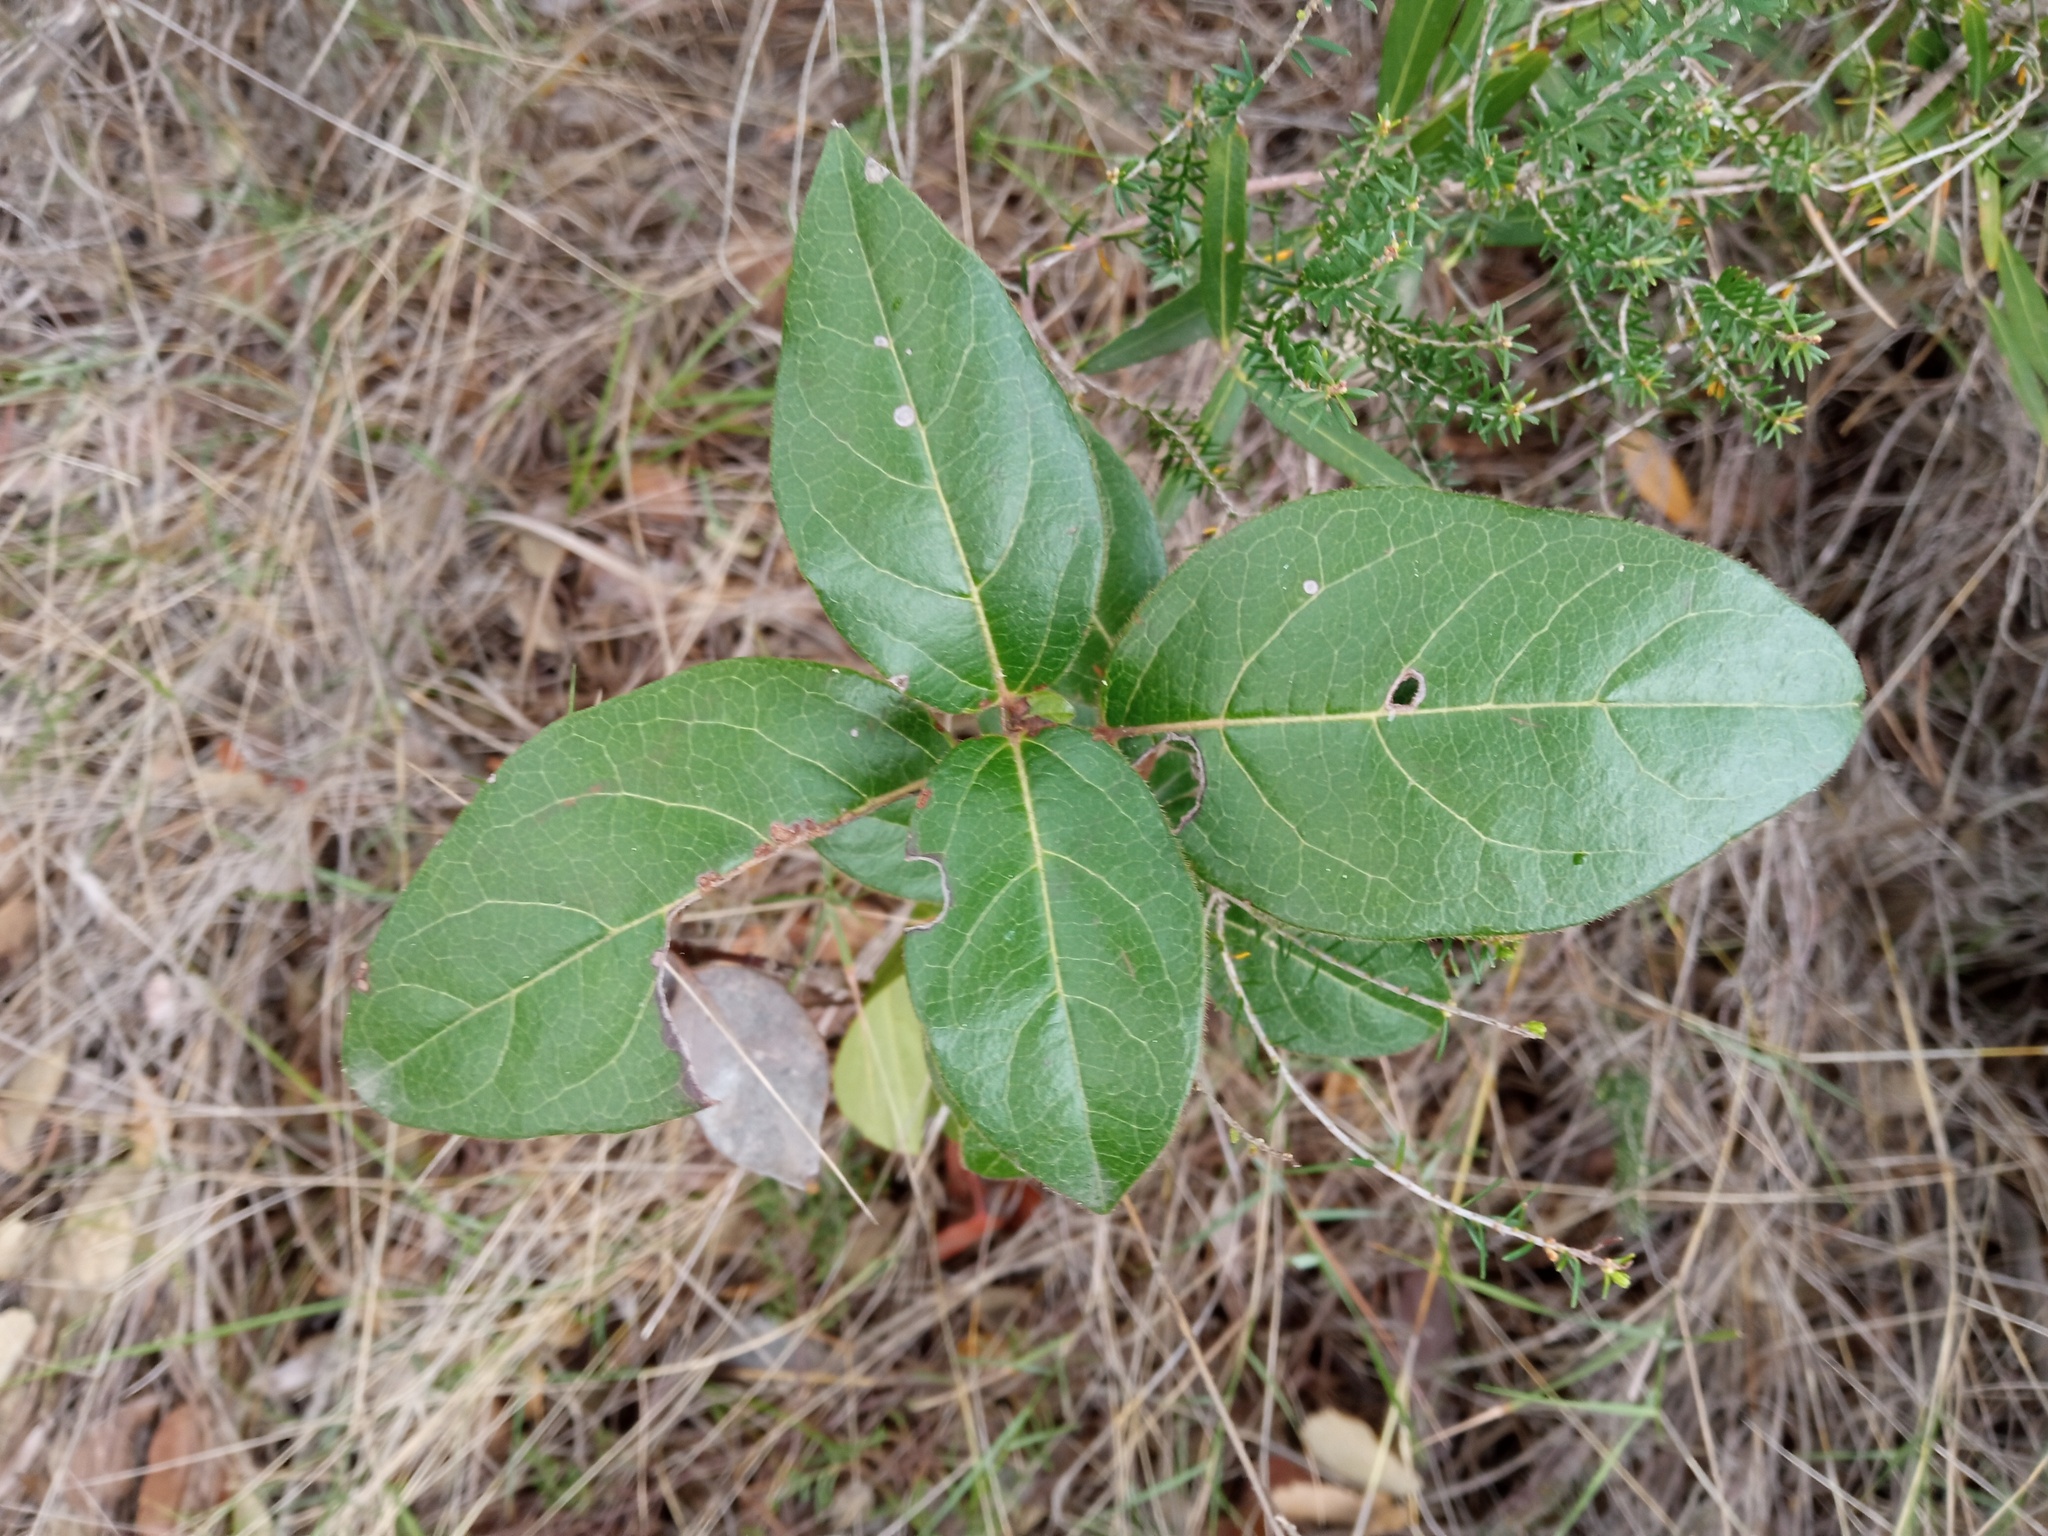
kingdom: Plantae
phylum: Tracheophyta
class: Magnoliopsida
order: Dipsacales
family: Viburnaceae
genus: Viburnum
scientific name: Viburnum tinus
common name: Laurustinus
